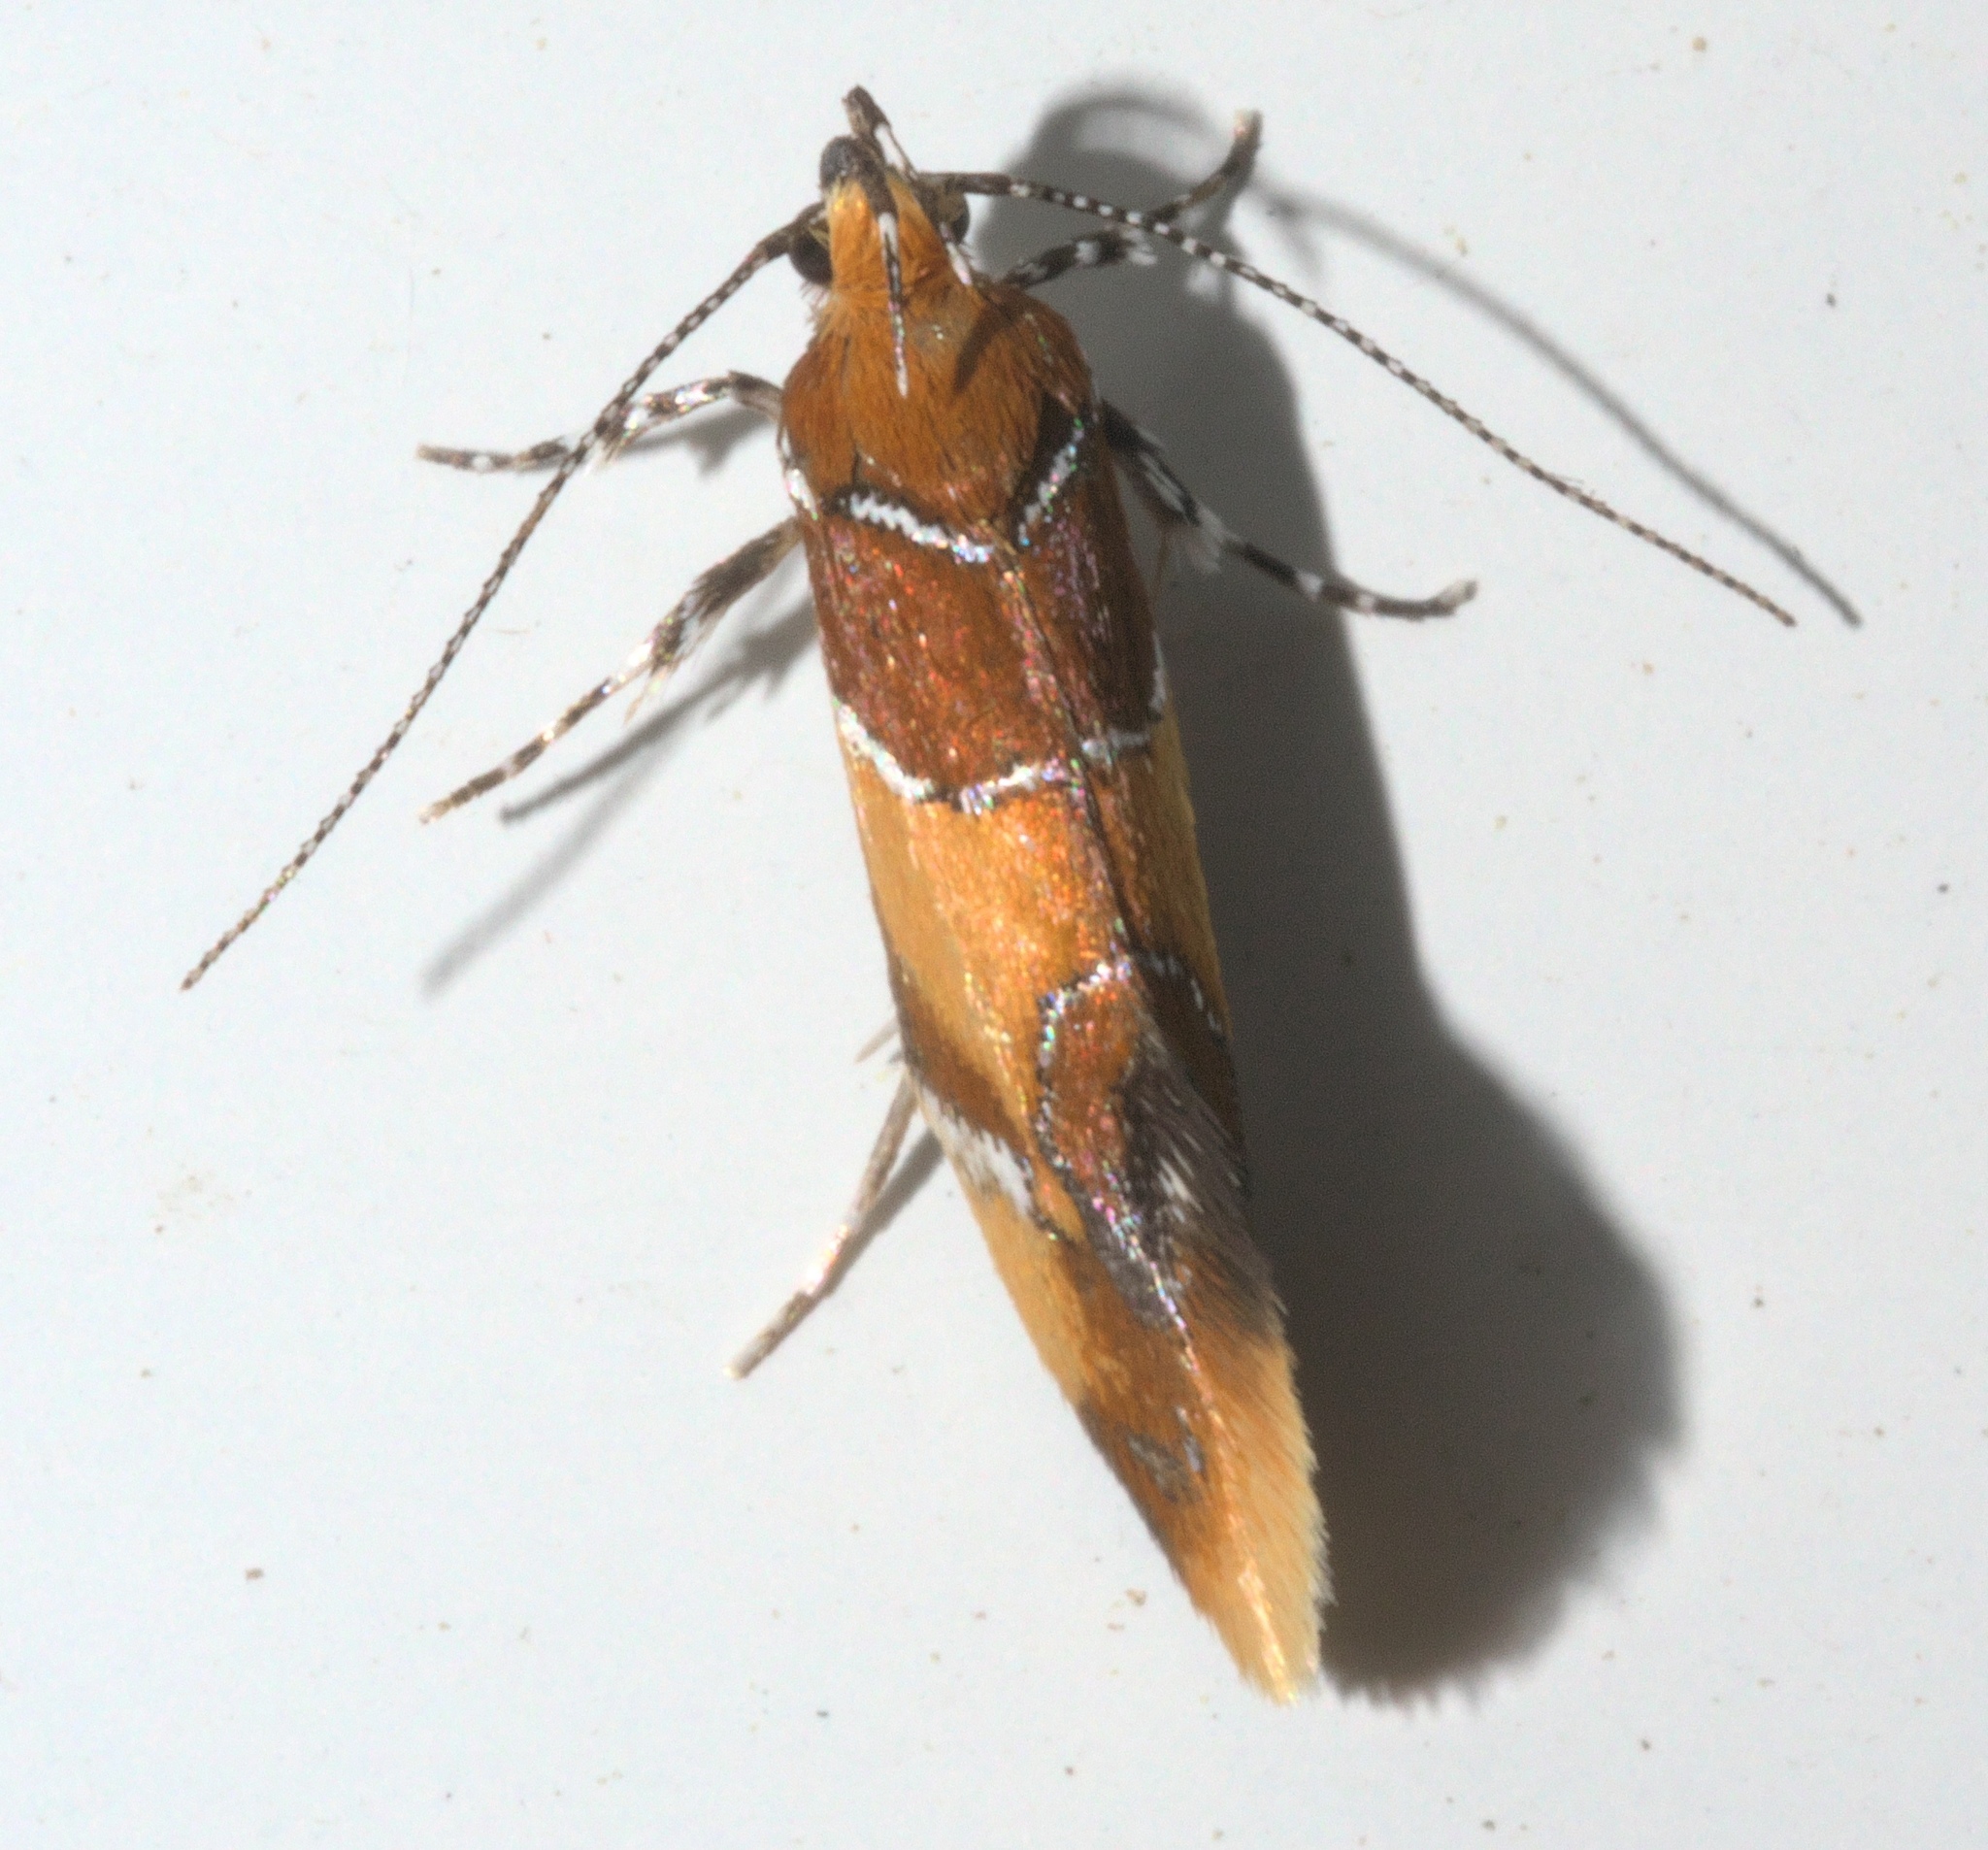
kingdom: Animalia
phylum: Arthropoda
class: Insecta
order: Lepidoptera
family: Oecophoridae
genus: Callima
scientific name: Callima argenticinctella
